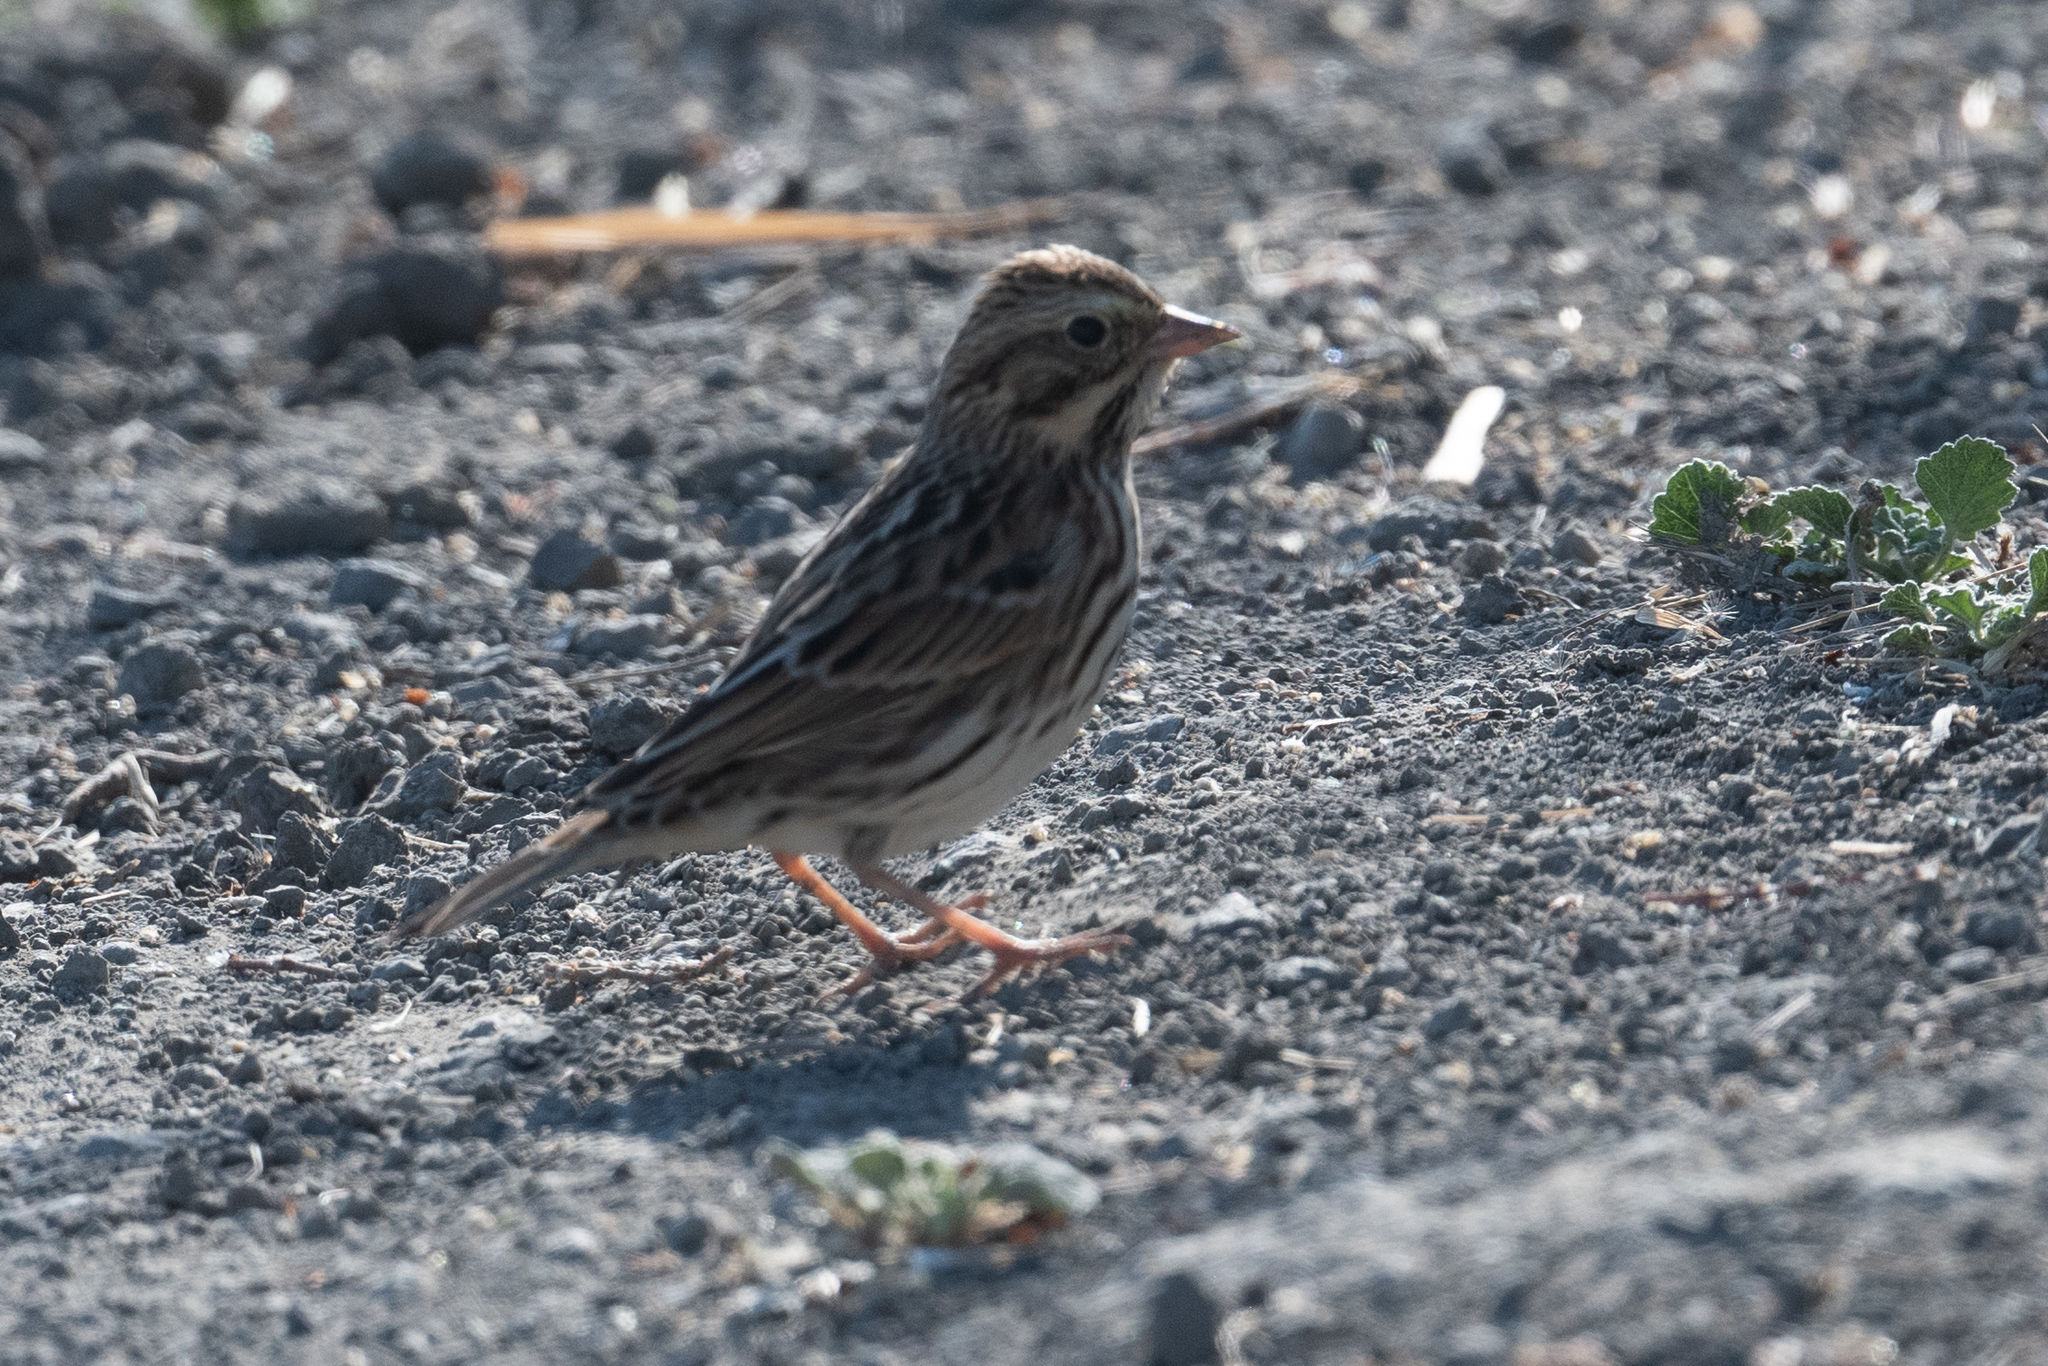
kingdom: Animalia
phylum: Chordata
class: Aves
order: Passeriformes
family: Passerellidae
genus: Passerculus
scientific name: Passerculus sandwichensis
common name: Savannah sparrow
